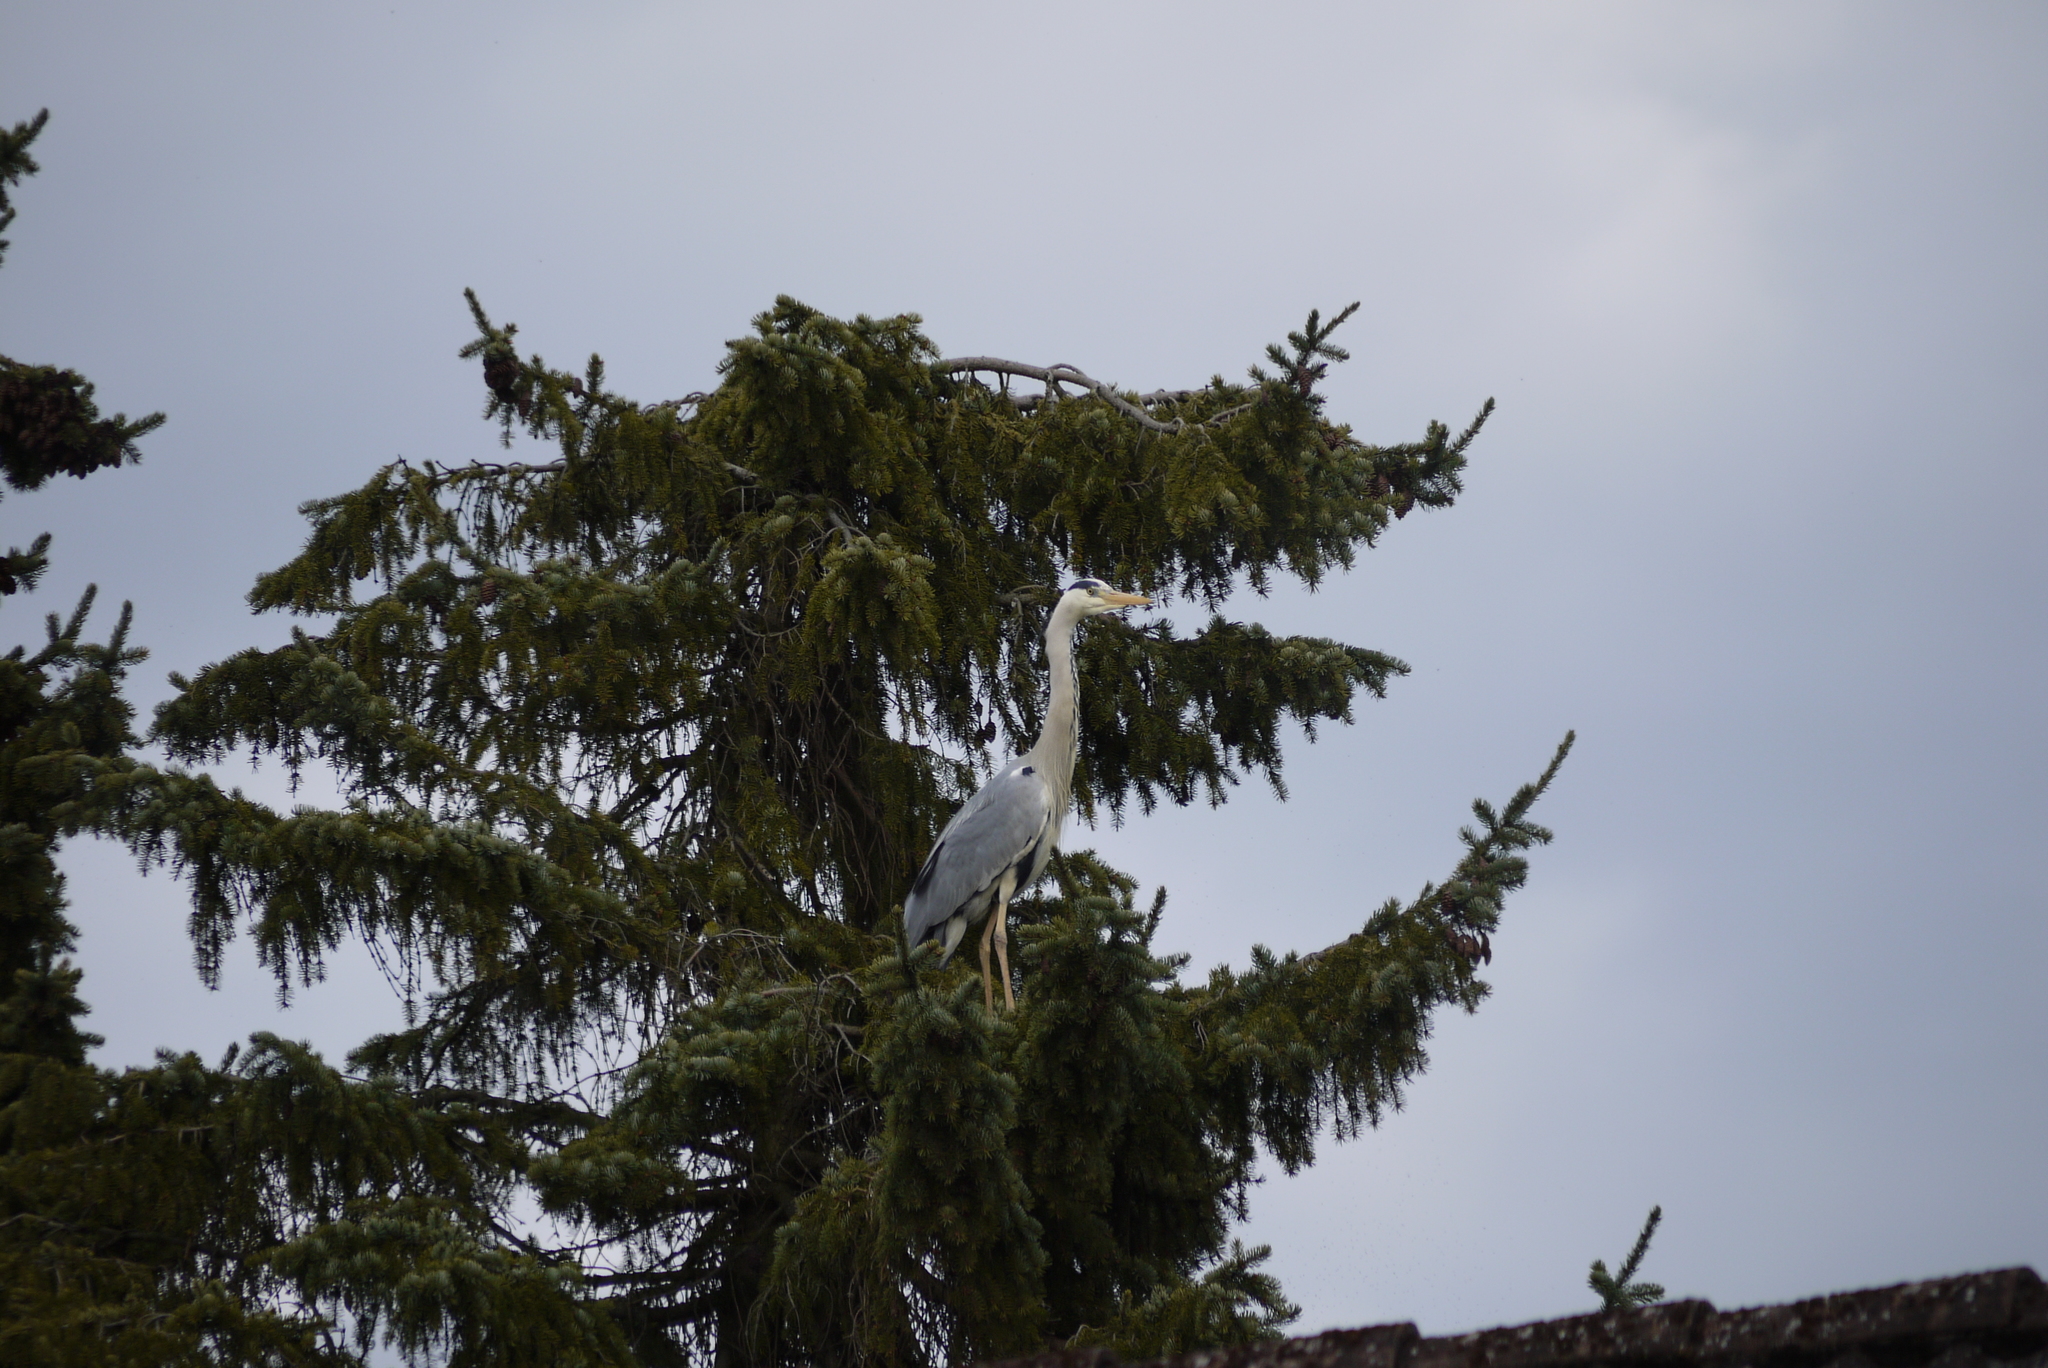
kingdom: Animalia
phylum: Chordata
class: Aves
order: Pelecaniformes
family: Ardeidae
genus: Ardea
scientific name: Ardea cinerea
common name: Grey heron
